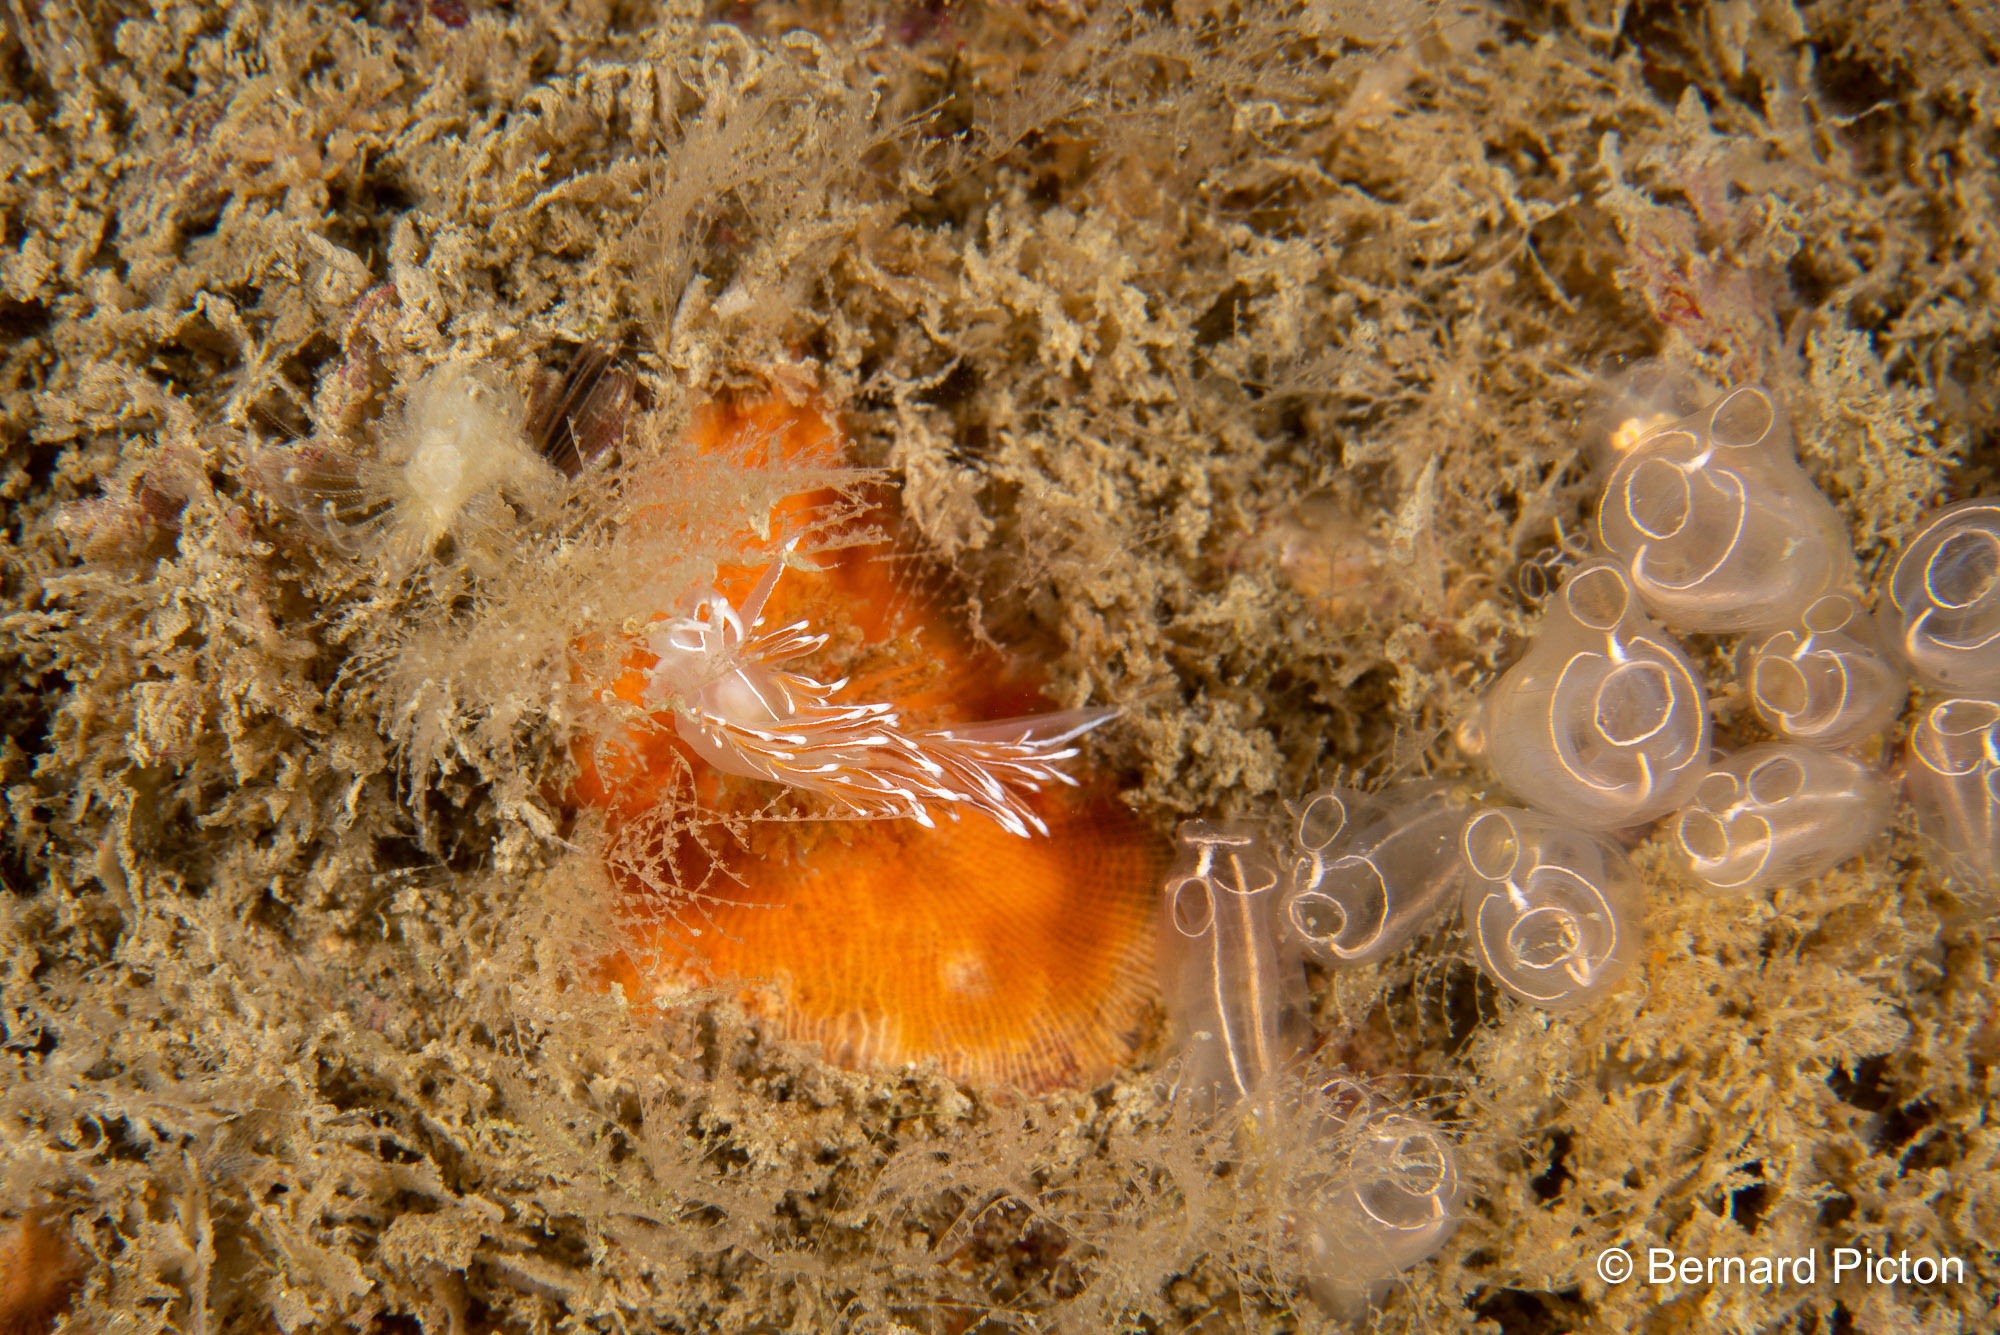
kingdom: Animalia
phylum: Mollusca
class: Gastropoda
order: Nudibranchia
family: Coryphellidae
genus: Coryphella
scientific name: Coryphella lineata
